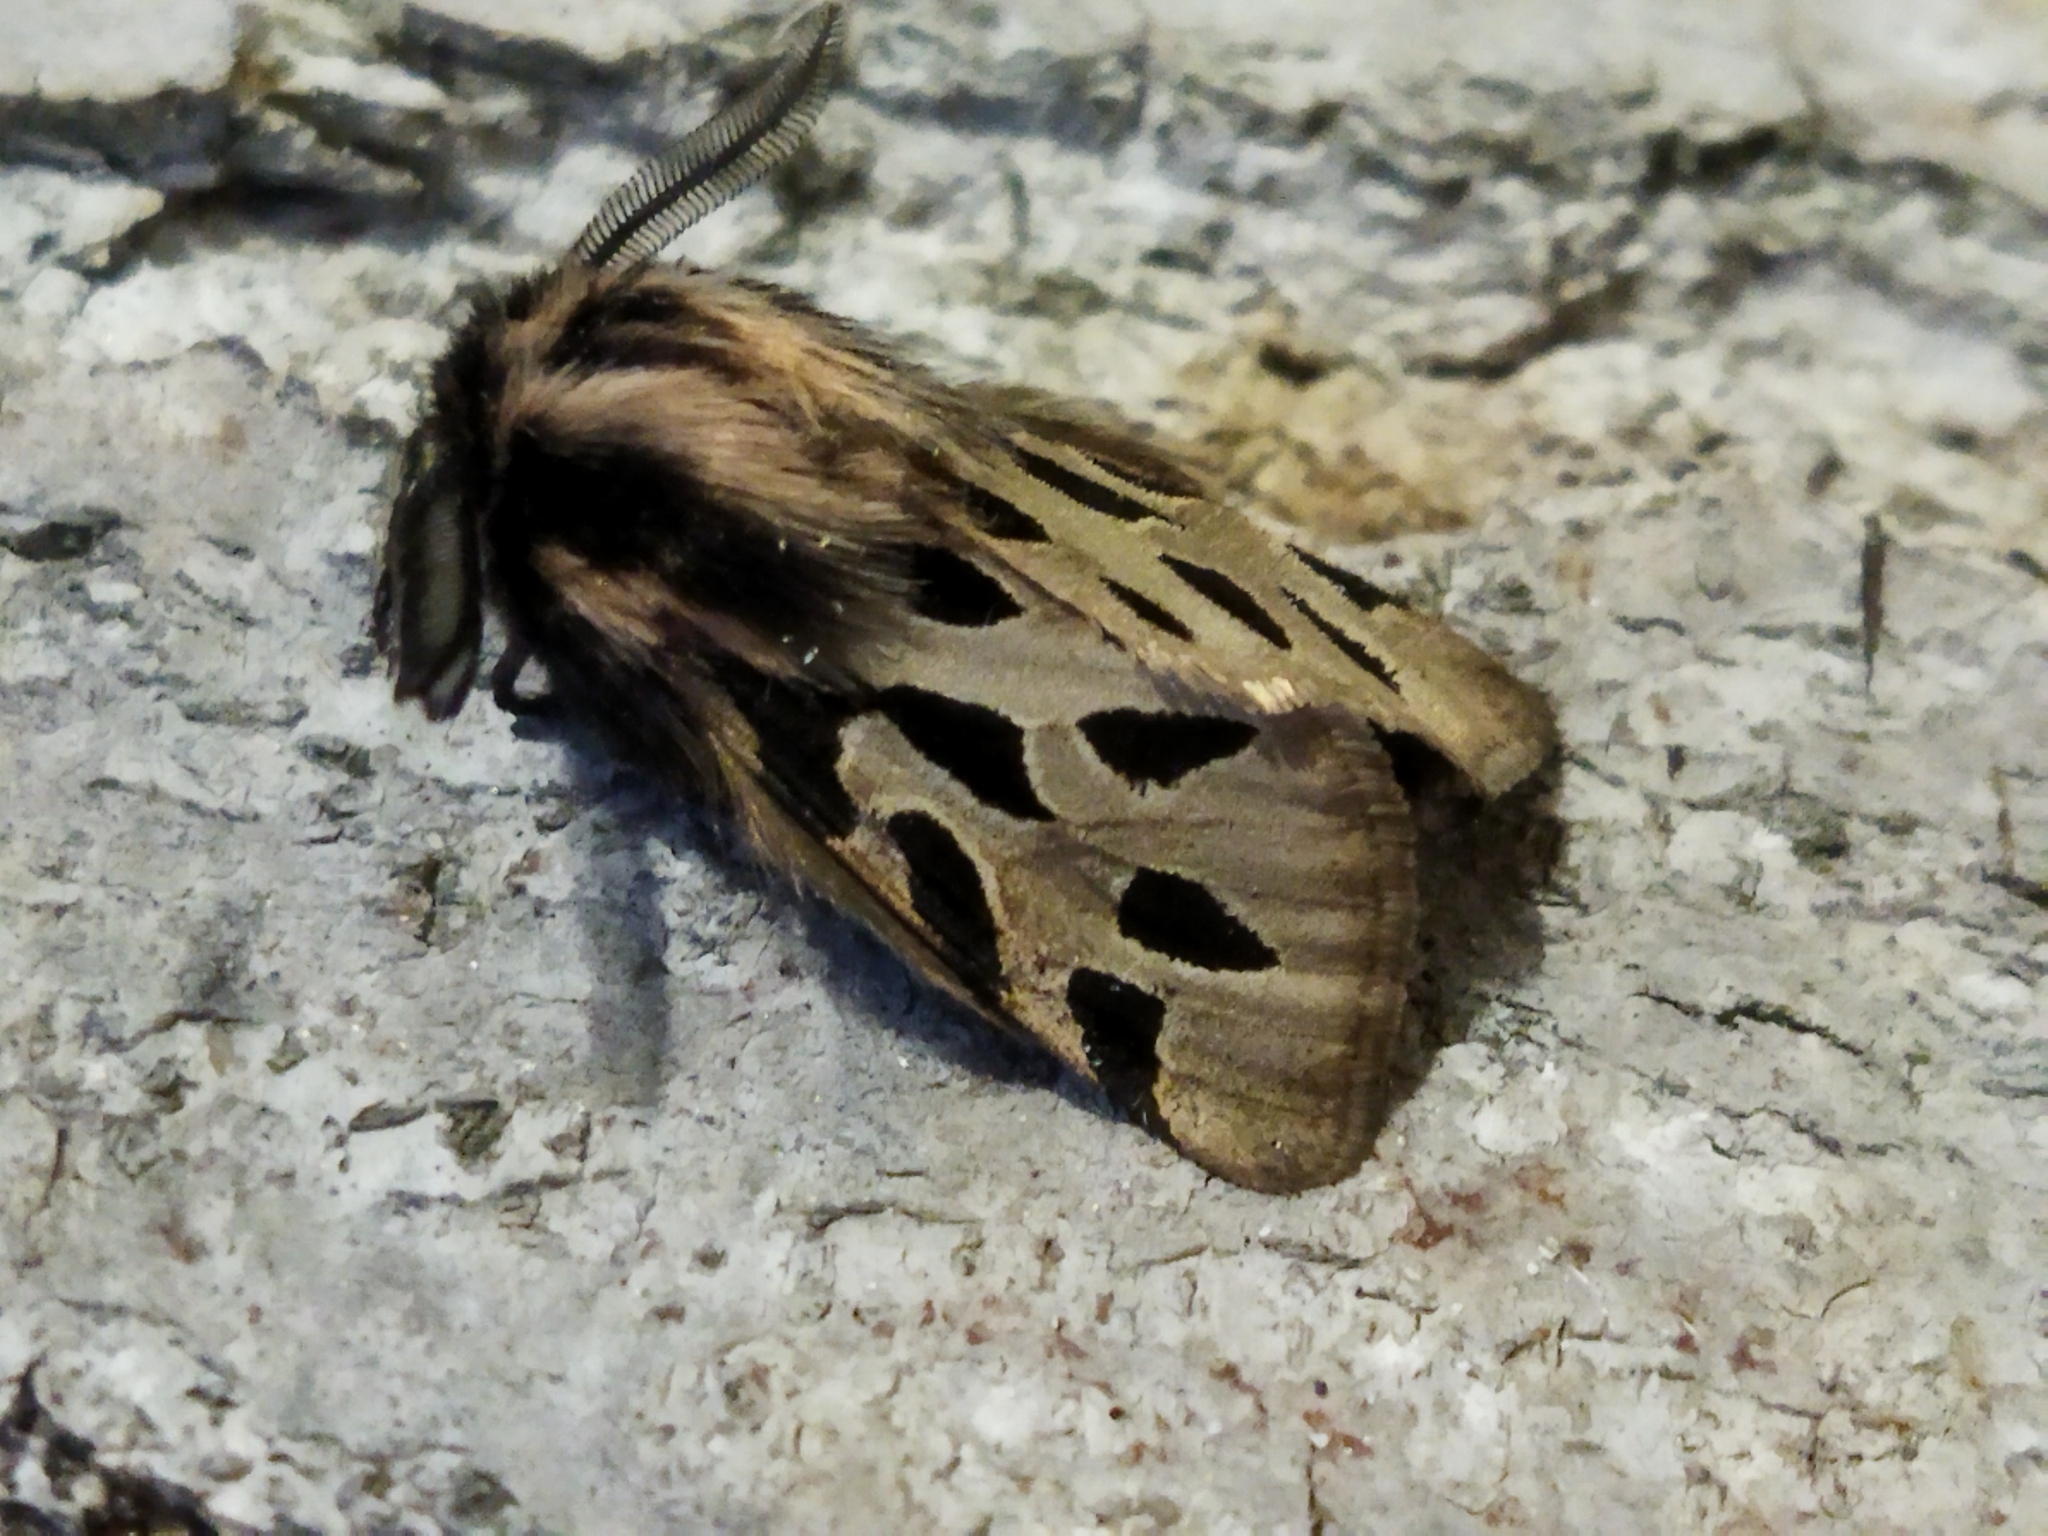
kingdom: Animalia
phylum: Arthropoda
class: Insecta
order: Lepidoptera
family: Erebidae
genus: Ocnogyna
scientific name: Ocnogyna parasita
